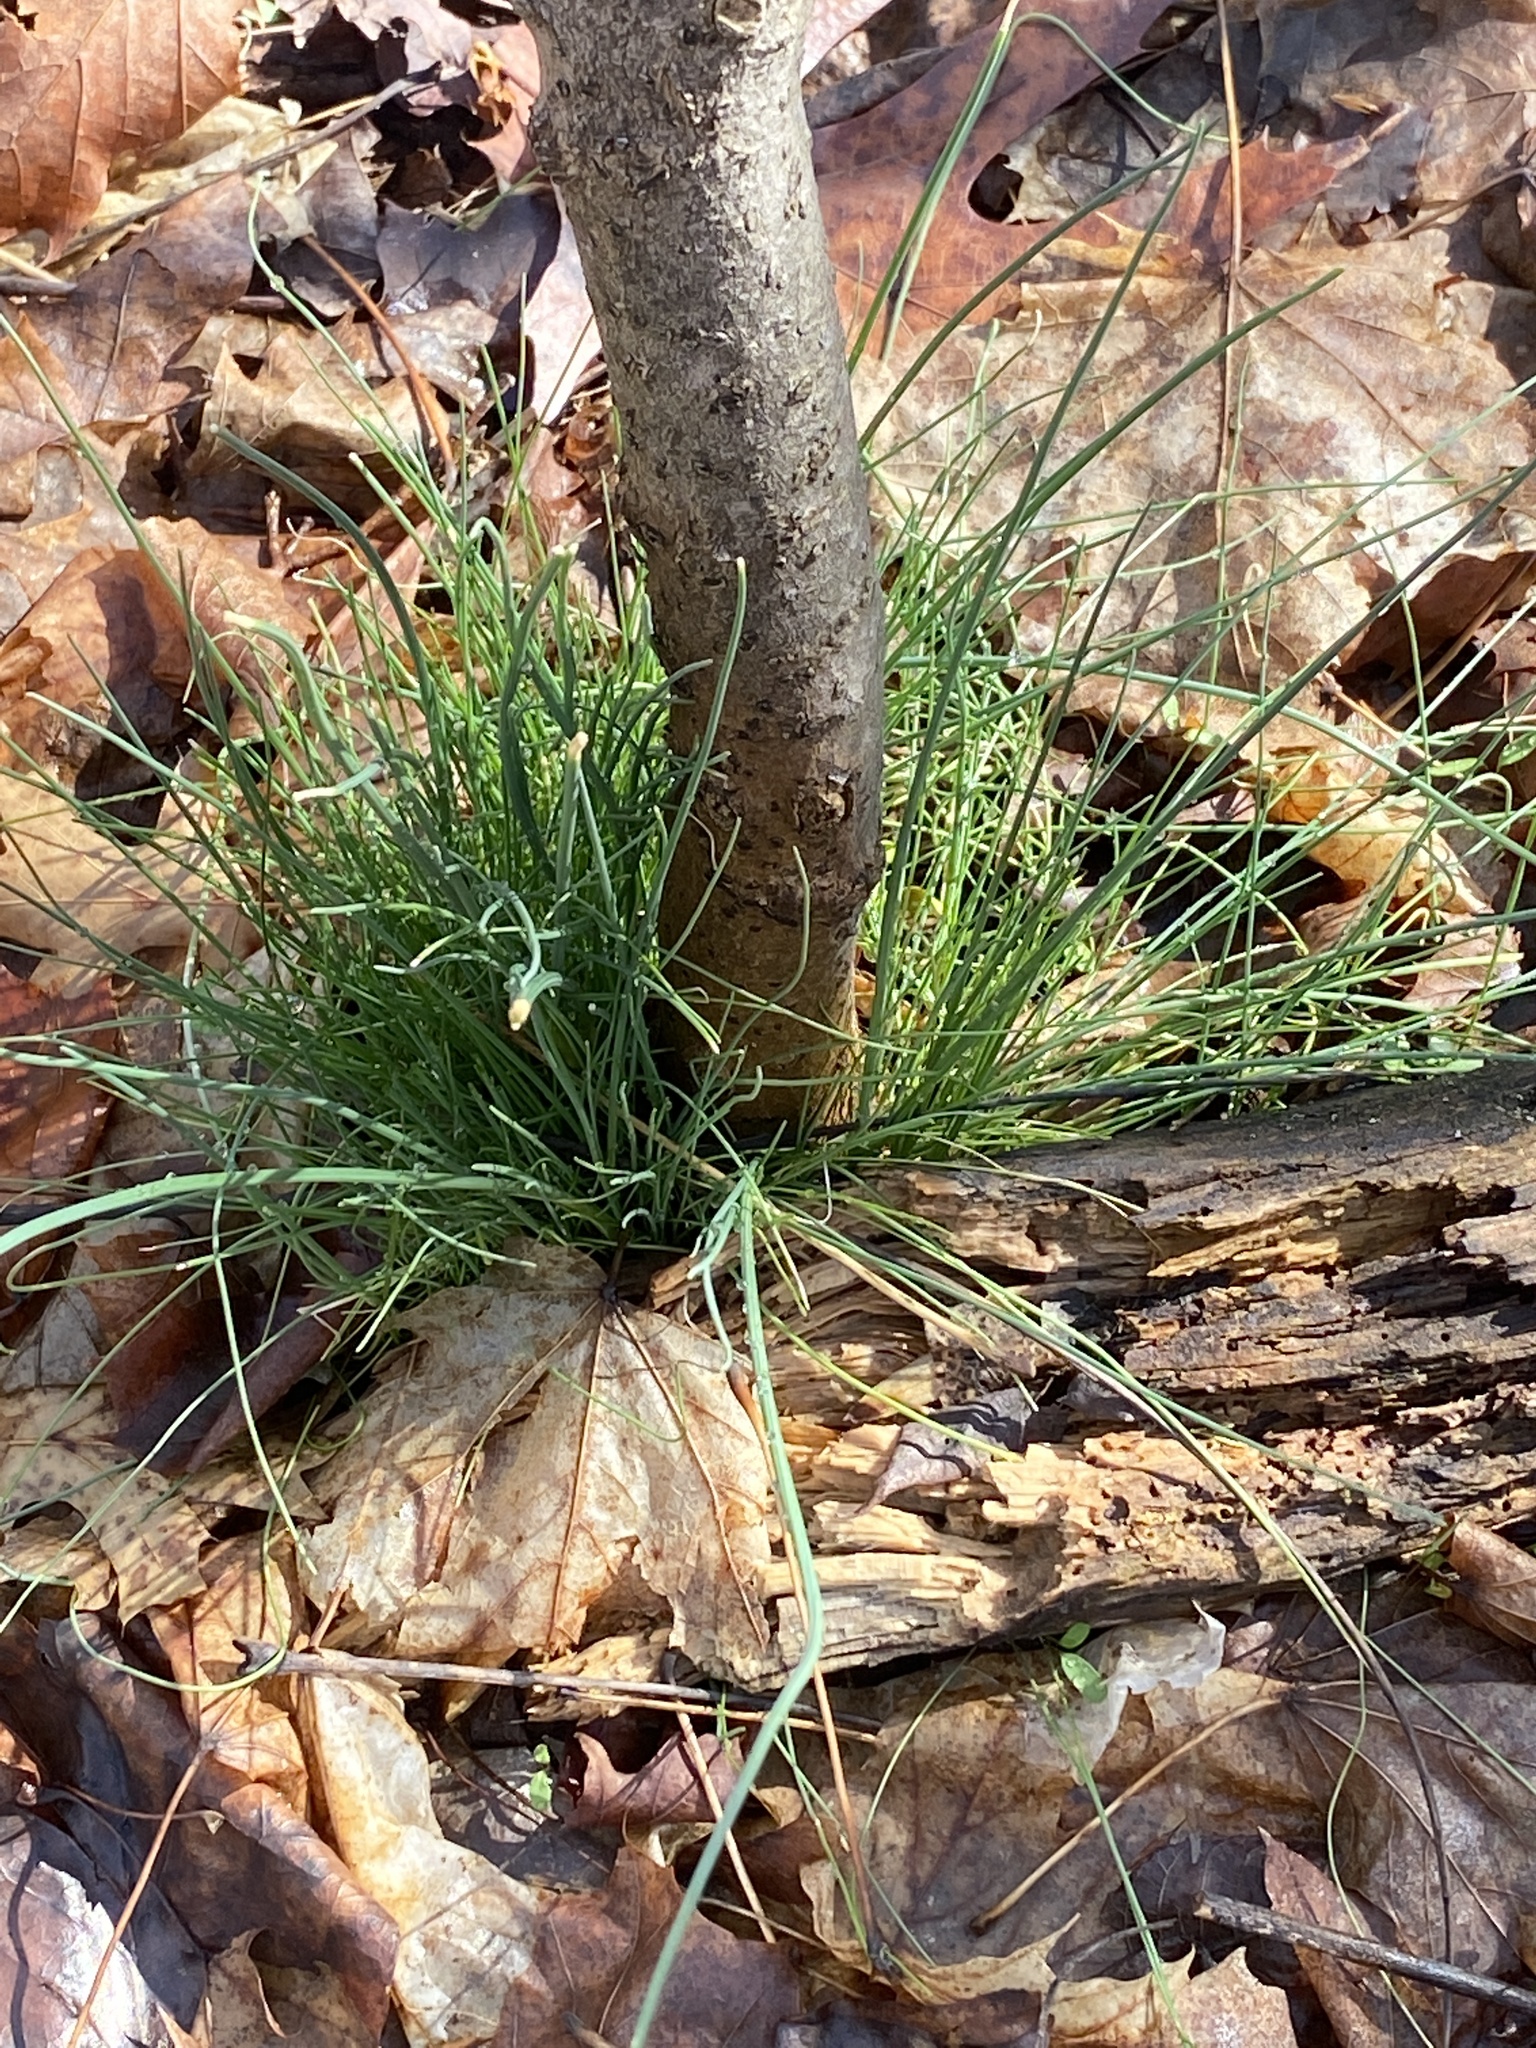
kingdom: Plantae
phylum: Tracheophyta
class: Liliopsida
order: Asparagales
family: Amaryllidaceae
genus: Allium
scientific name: Allium vineale
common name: Crow garlic
